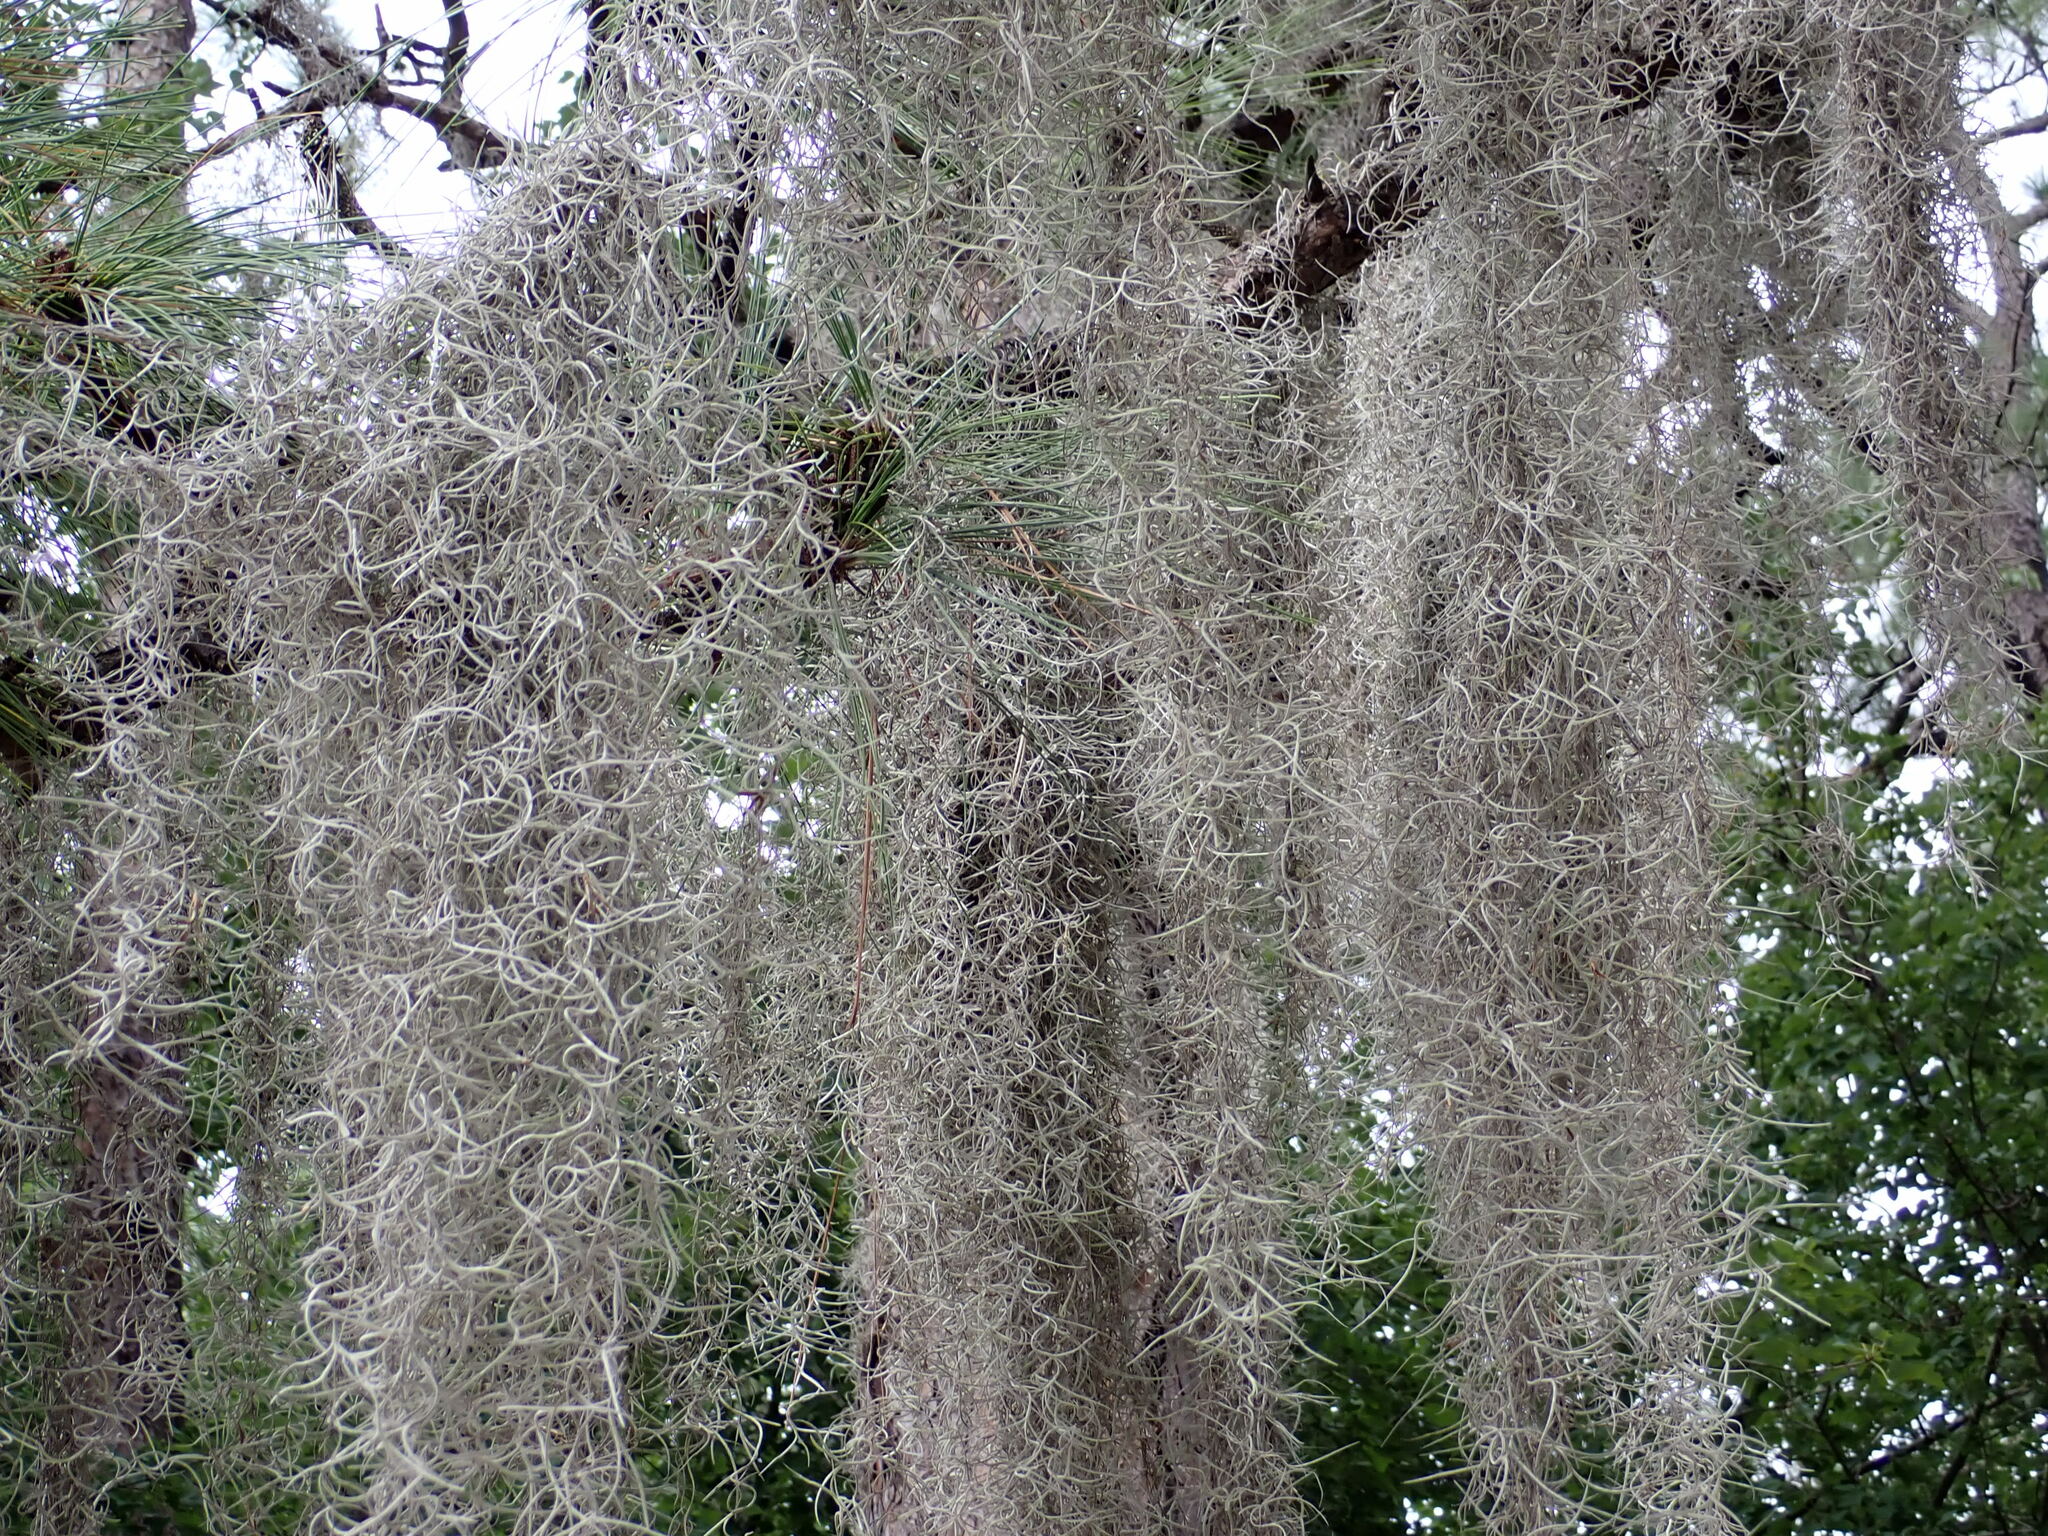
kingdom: Plantae
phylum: Tracheophyta
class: Liliopsida
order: Poales
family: Bromeliaceae
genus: Tillandsia
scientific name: Tillandsia usneoides
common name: Spanish moss
